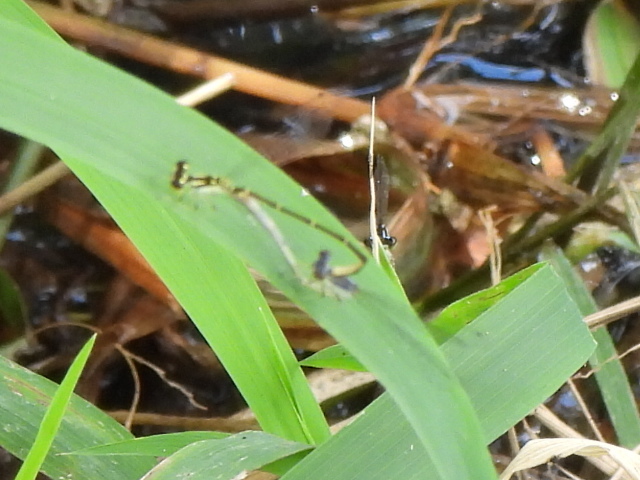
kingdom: Animalia
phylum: Arthropoda
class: Insecta
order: Odonata
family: Coenagrionidae
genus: Ischnura
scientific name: Ischnura posita
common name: Fragile forktail
